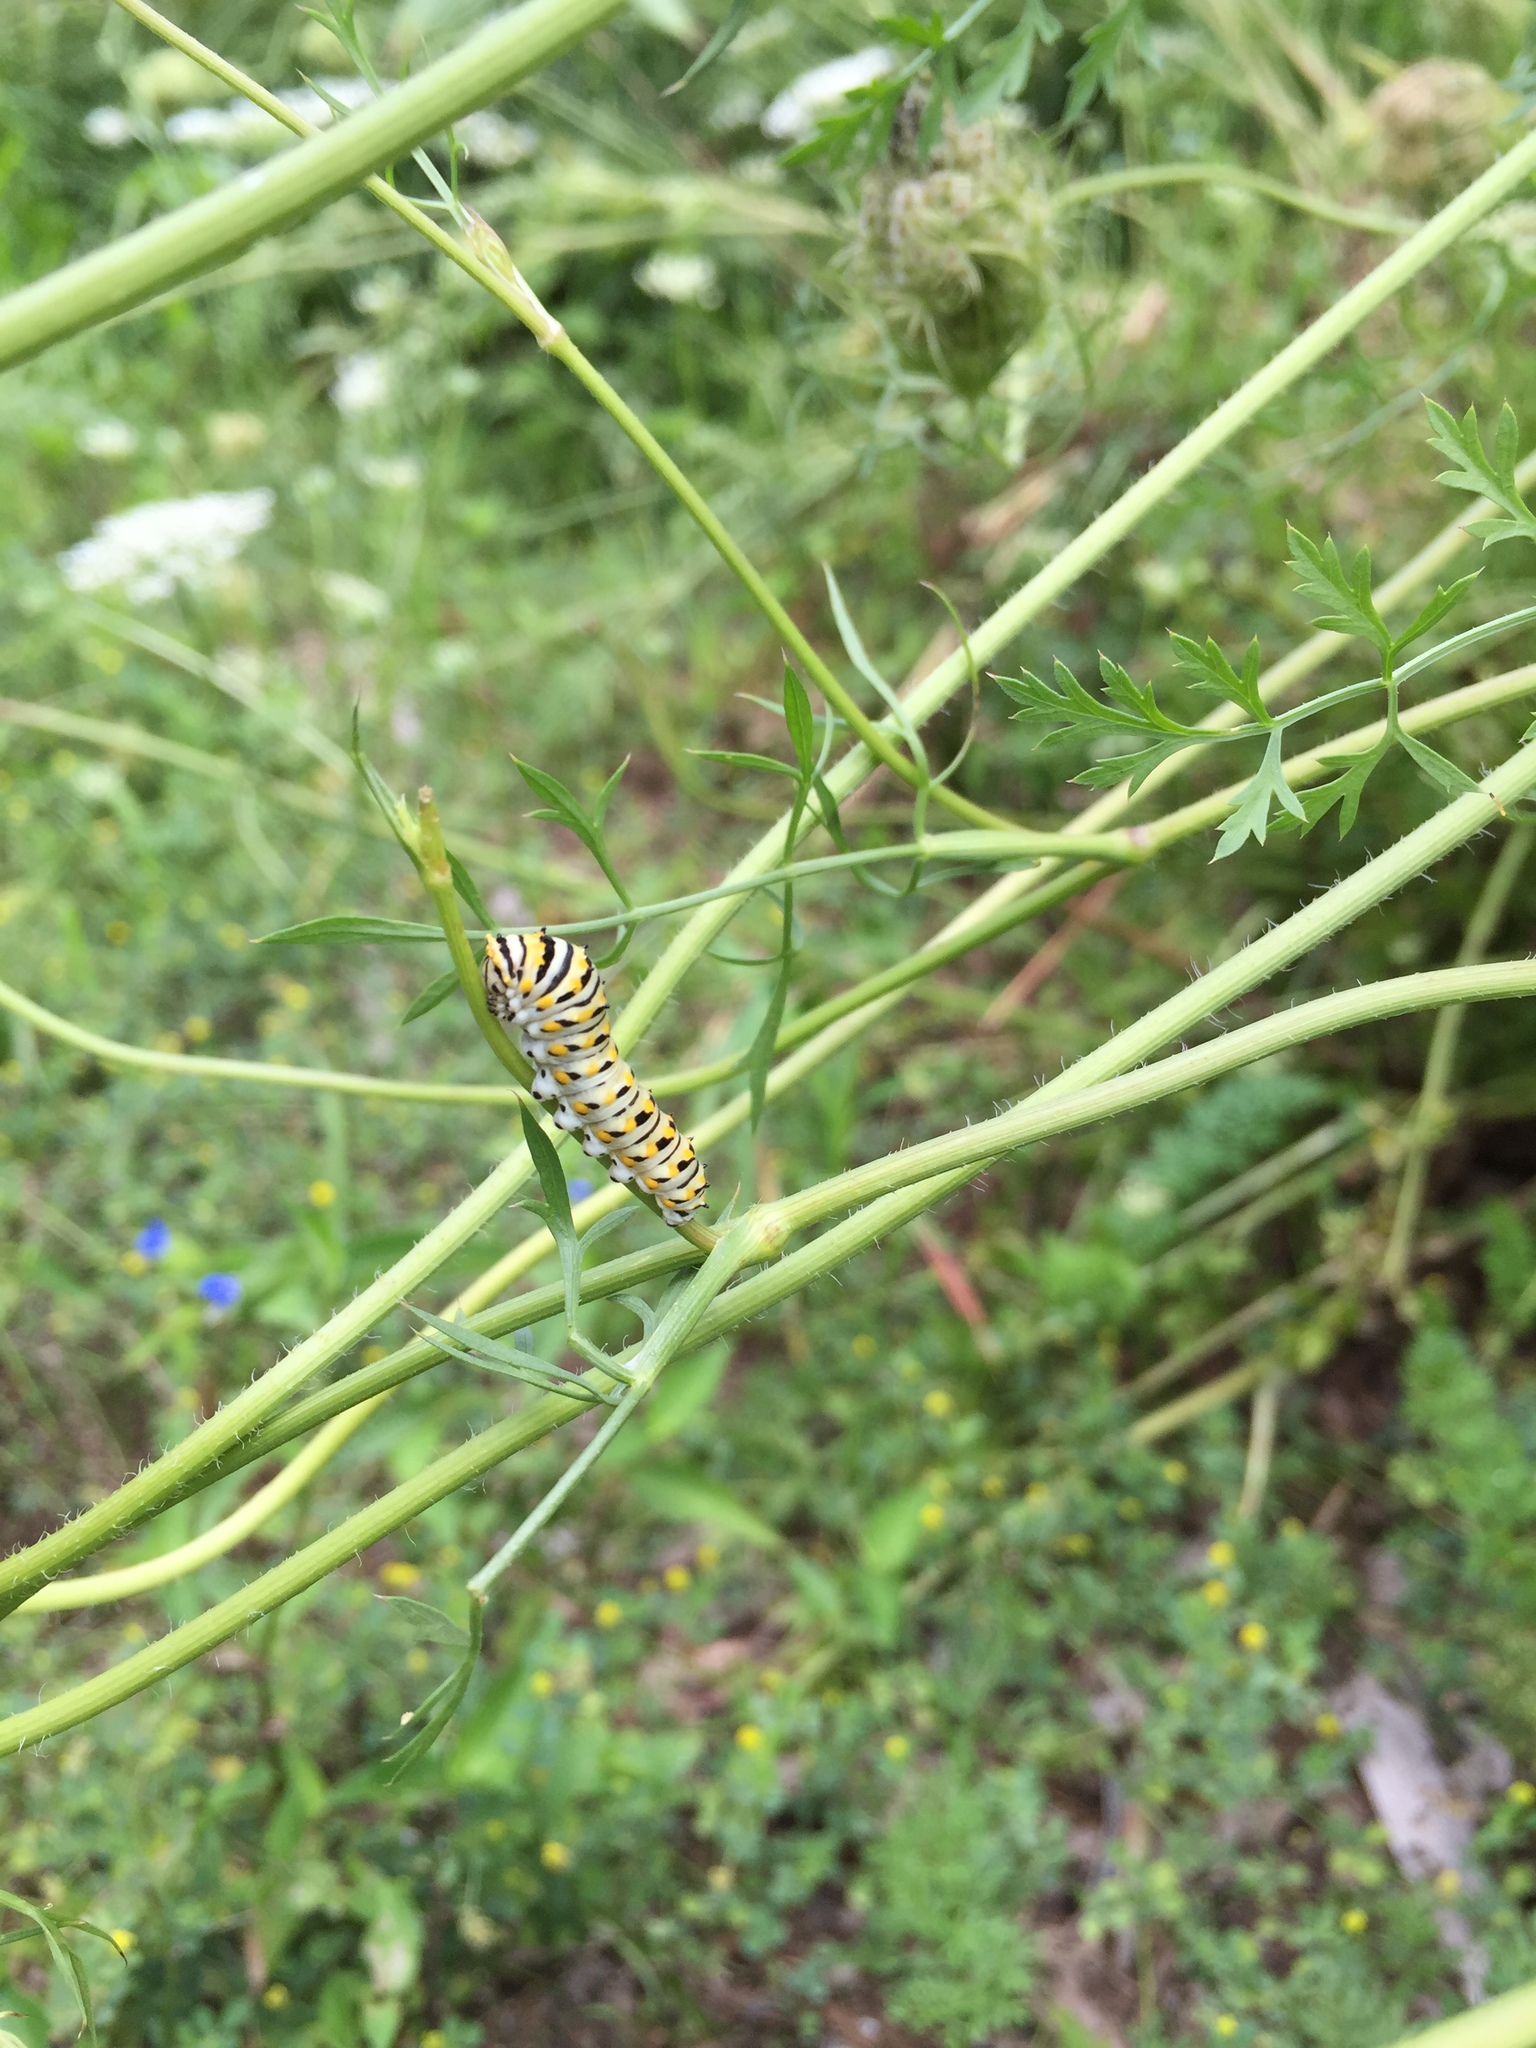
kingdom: Animalia
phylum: Arthropoda
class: Insecta
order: Lepidoptera
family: Papilionidae
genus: Papilio
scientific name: Papilio polyxenes
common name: Black swallowtail
